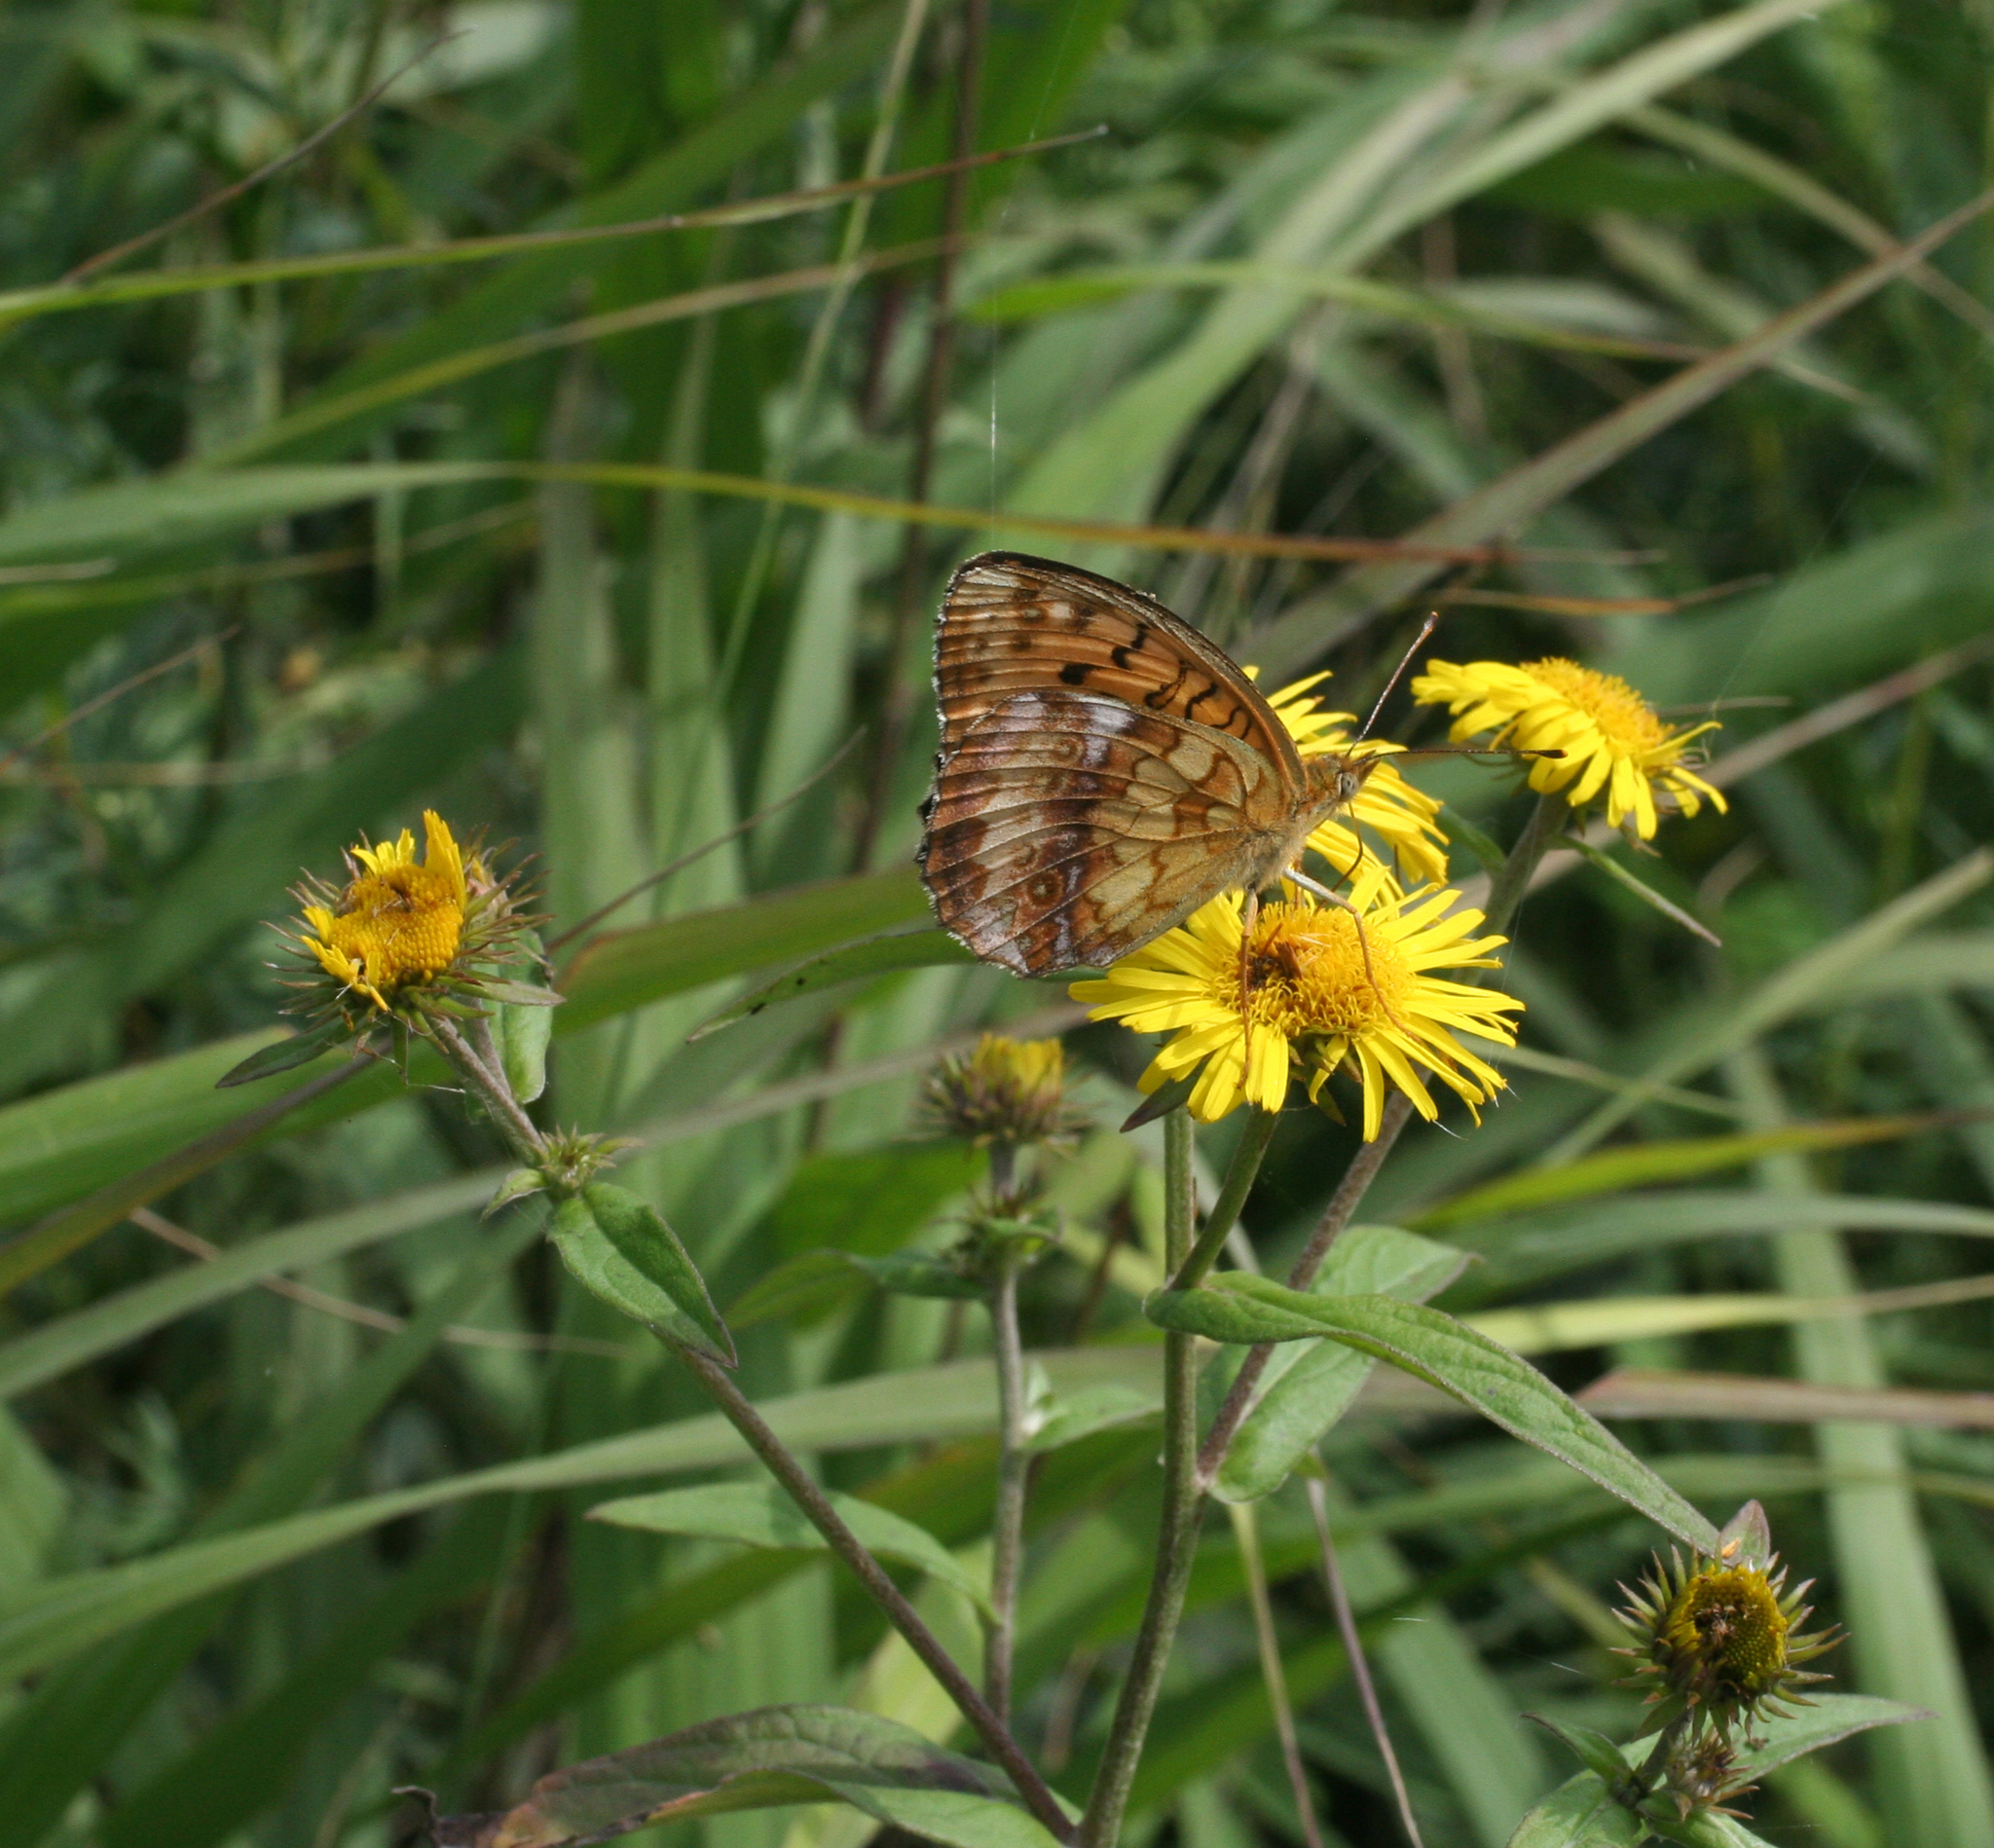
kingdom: Plantae
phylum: Tracheophyta
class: Magnoliopsida
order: Asterales
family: Asteraceae
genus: Inula
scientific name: Inula japonica
